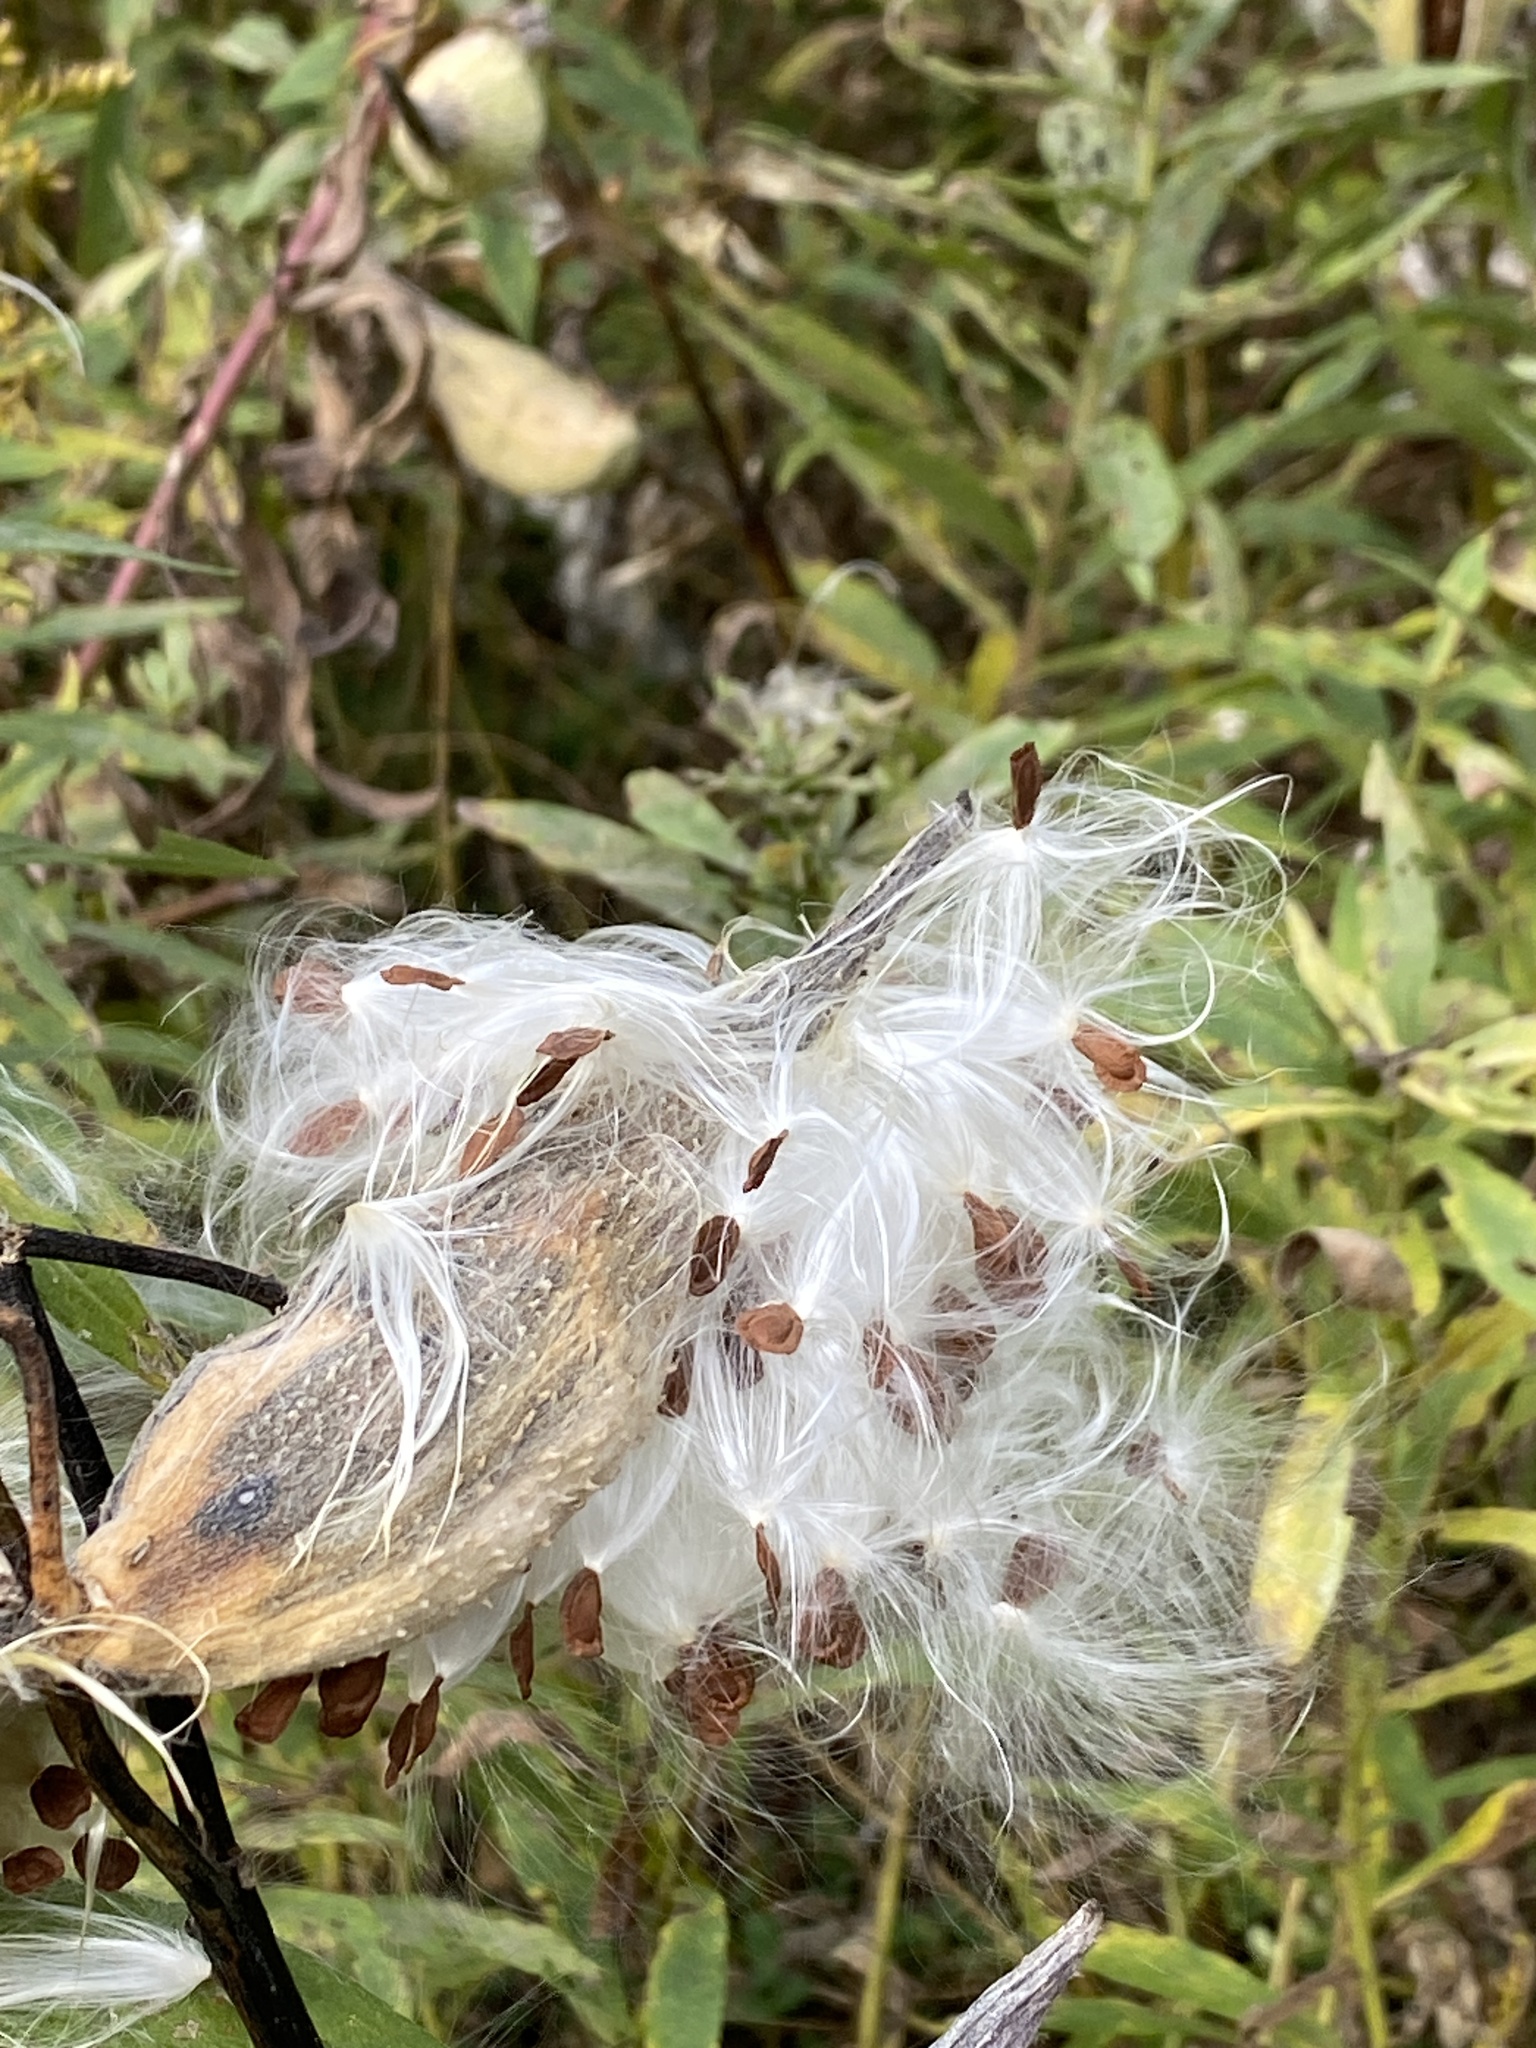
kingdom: Plantae
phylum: Tracheophyta
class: Magnoliopsida
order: Gentianales
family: Apocynaceae
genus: Asclepias
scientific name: Asclepias syriaca
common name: Common milkweed
